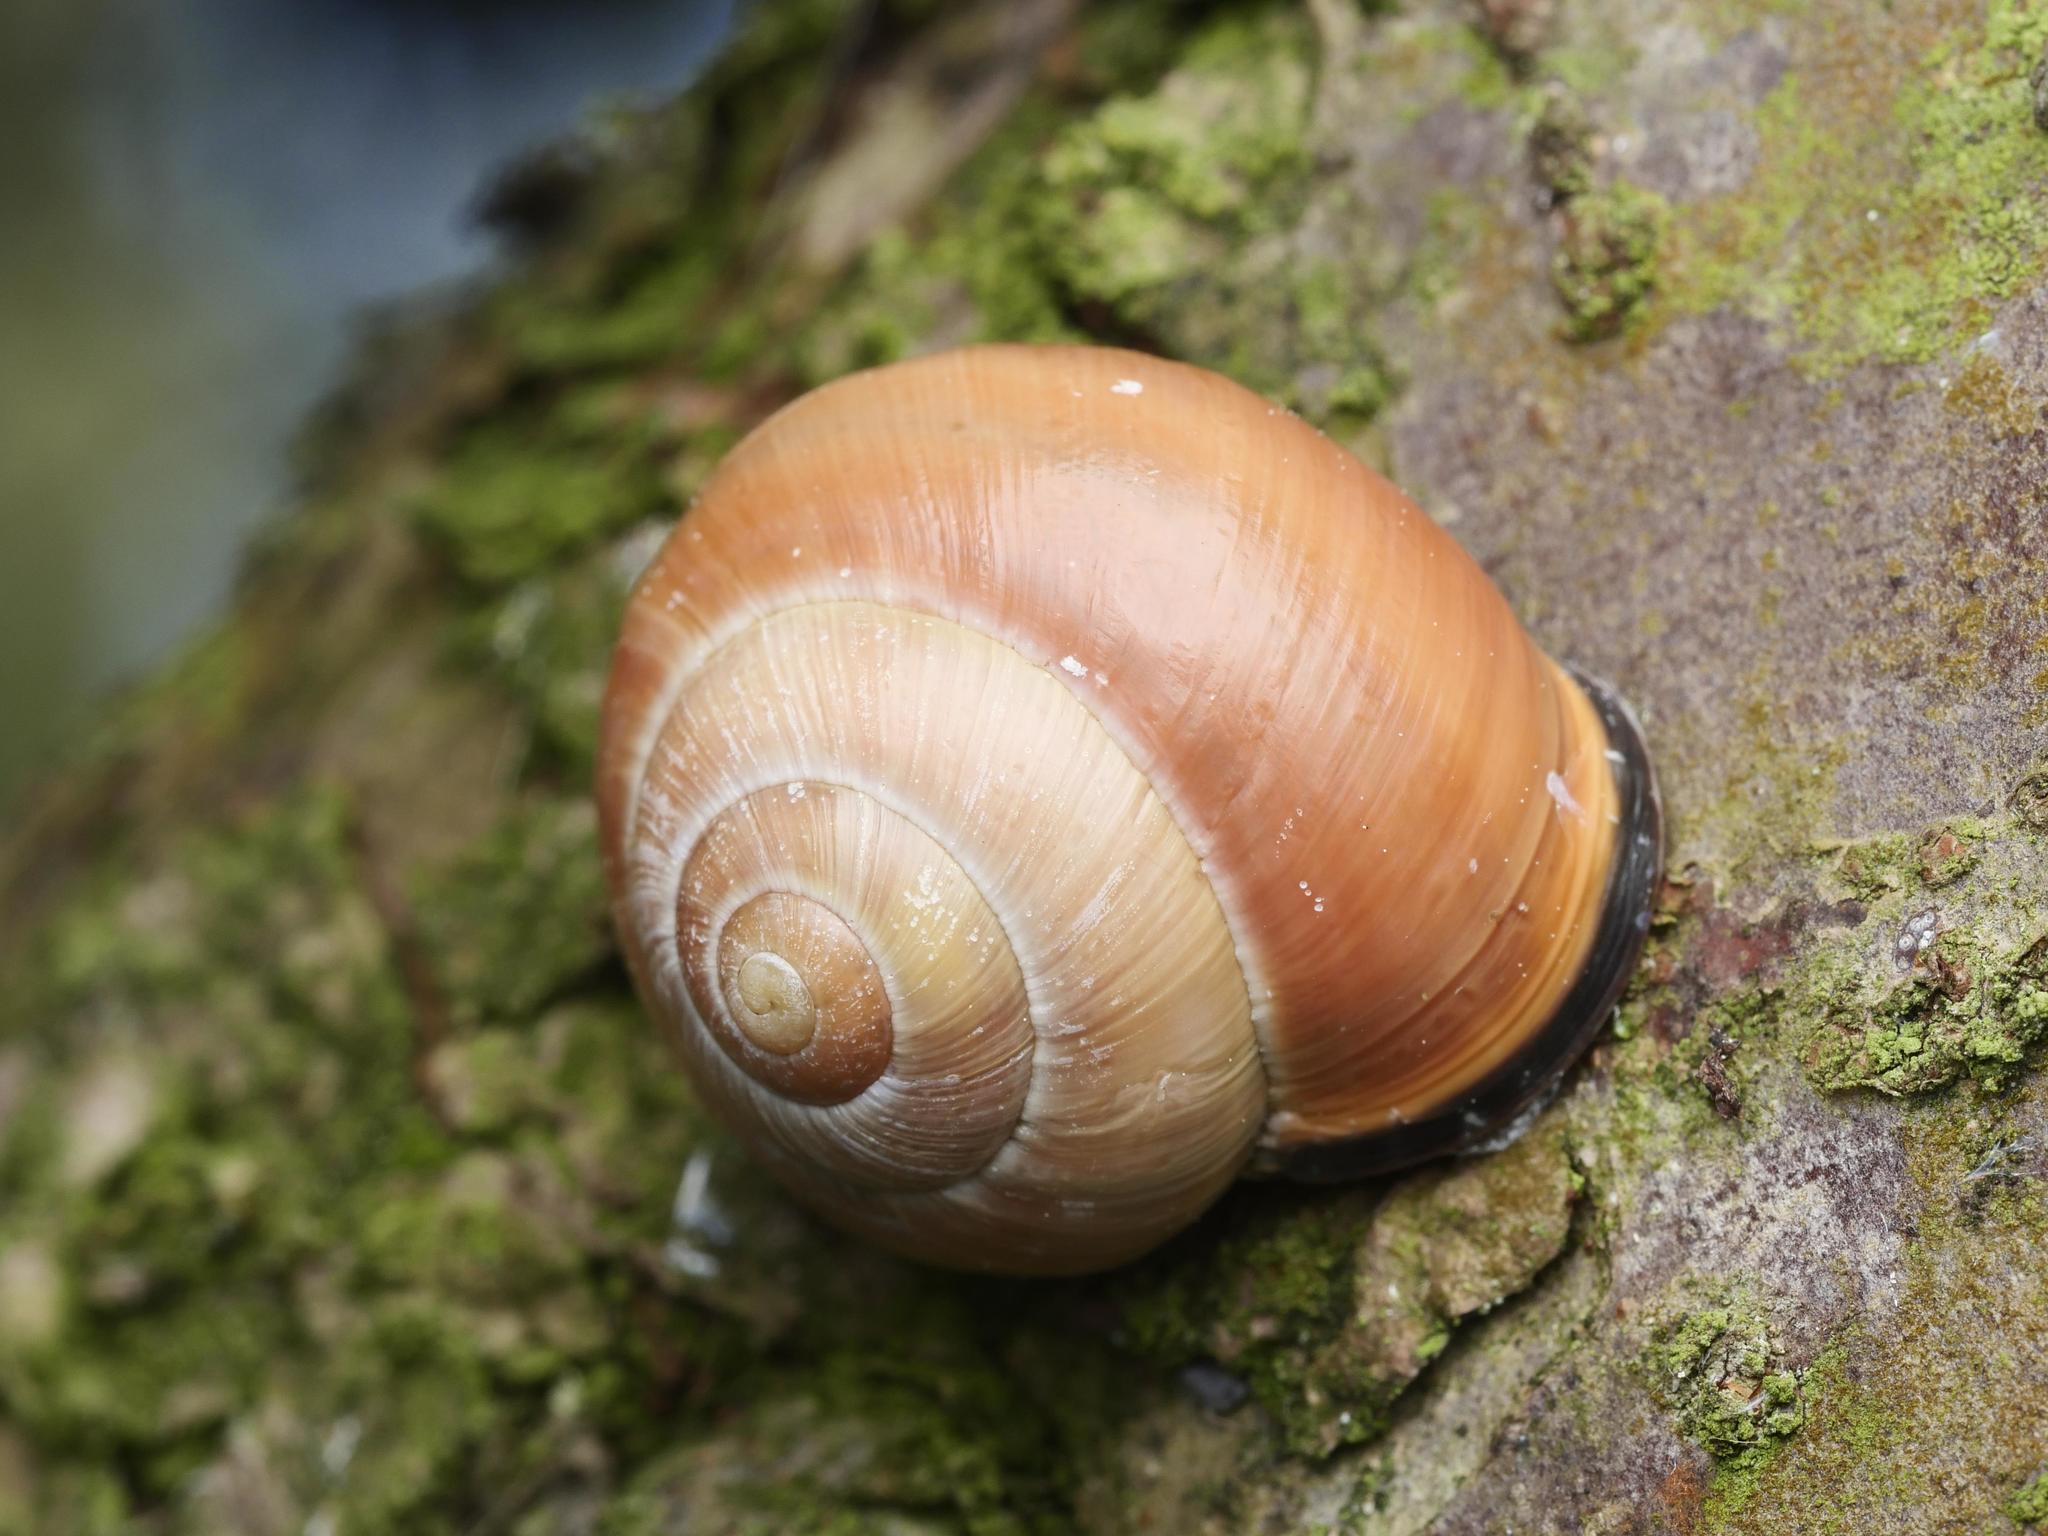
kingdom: Animalia
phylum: Mollusca
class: Gastropoda
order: Stylommatophora
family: Helicidae
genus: Cepaea
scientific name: Cepaea nemoralis
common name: Grovesnail
